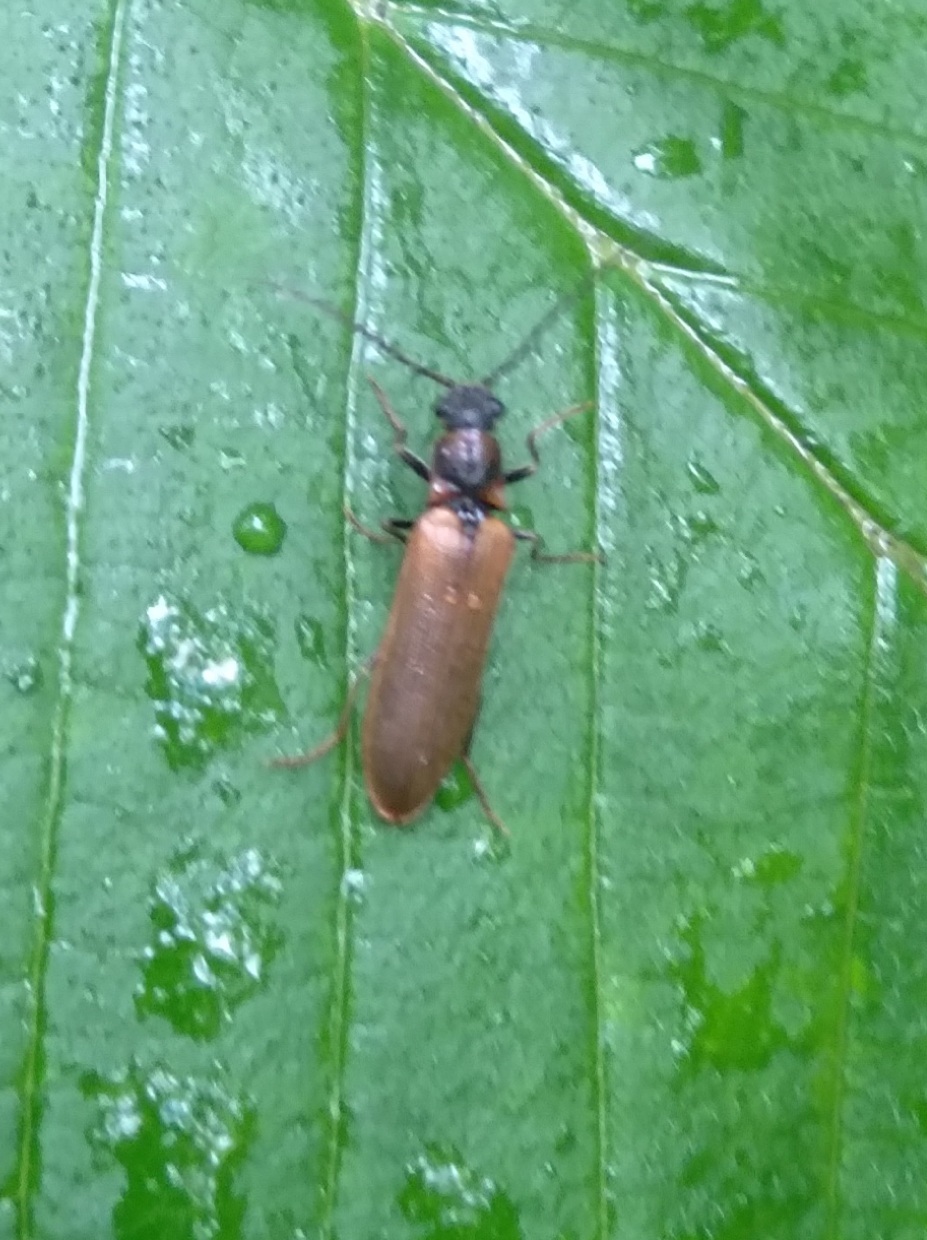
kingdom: Animalia
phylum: Arthropoda
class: Insecta
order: Coleoptera
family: Elateridae
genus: Denticollis
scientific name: Denticollis linearis
